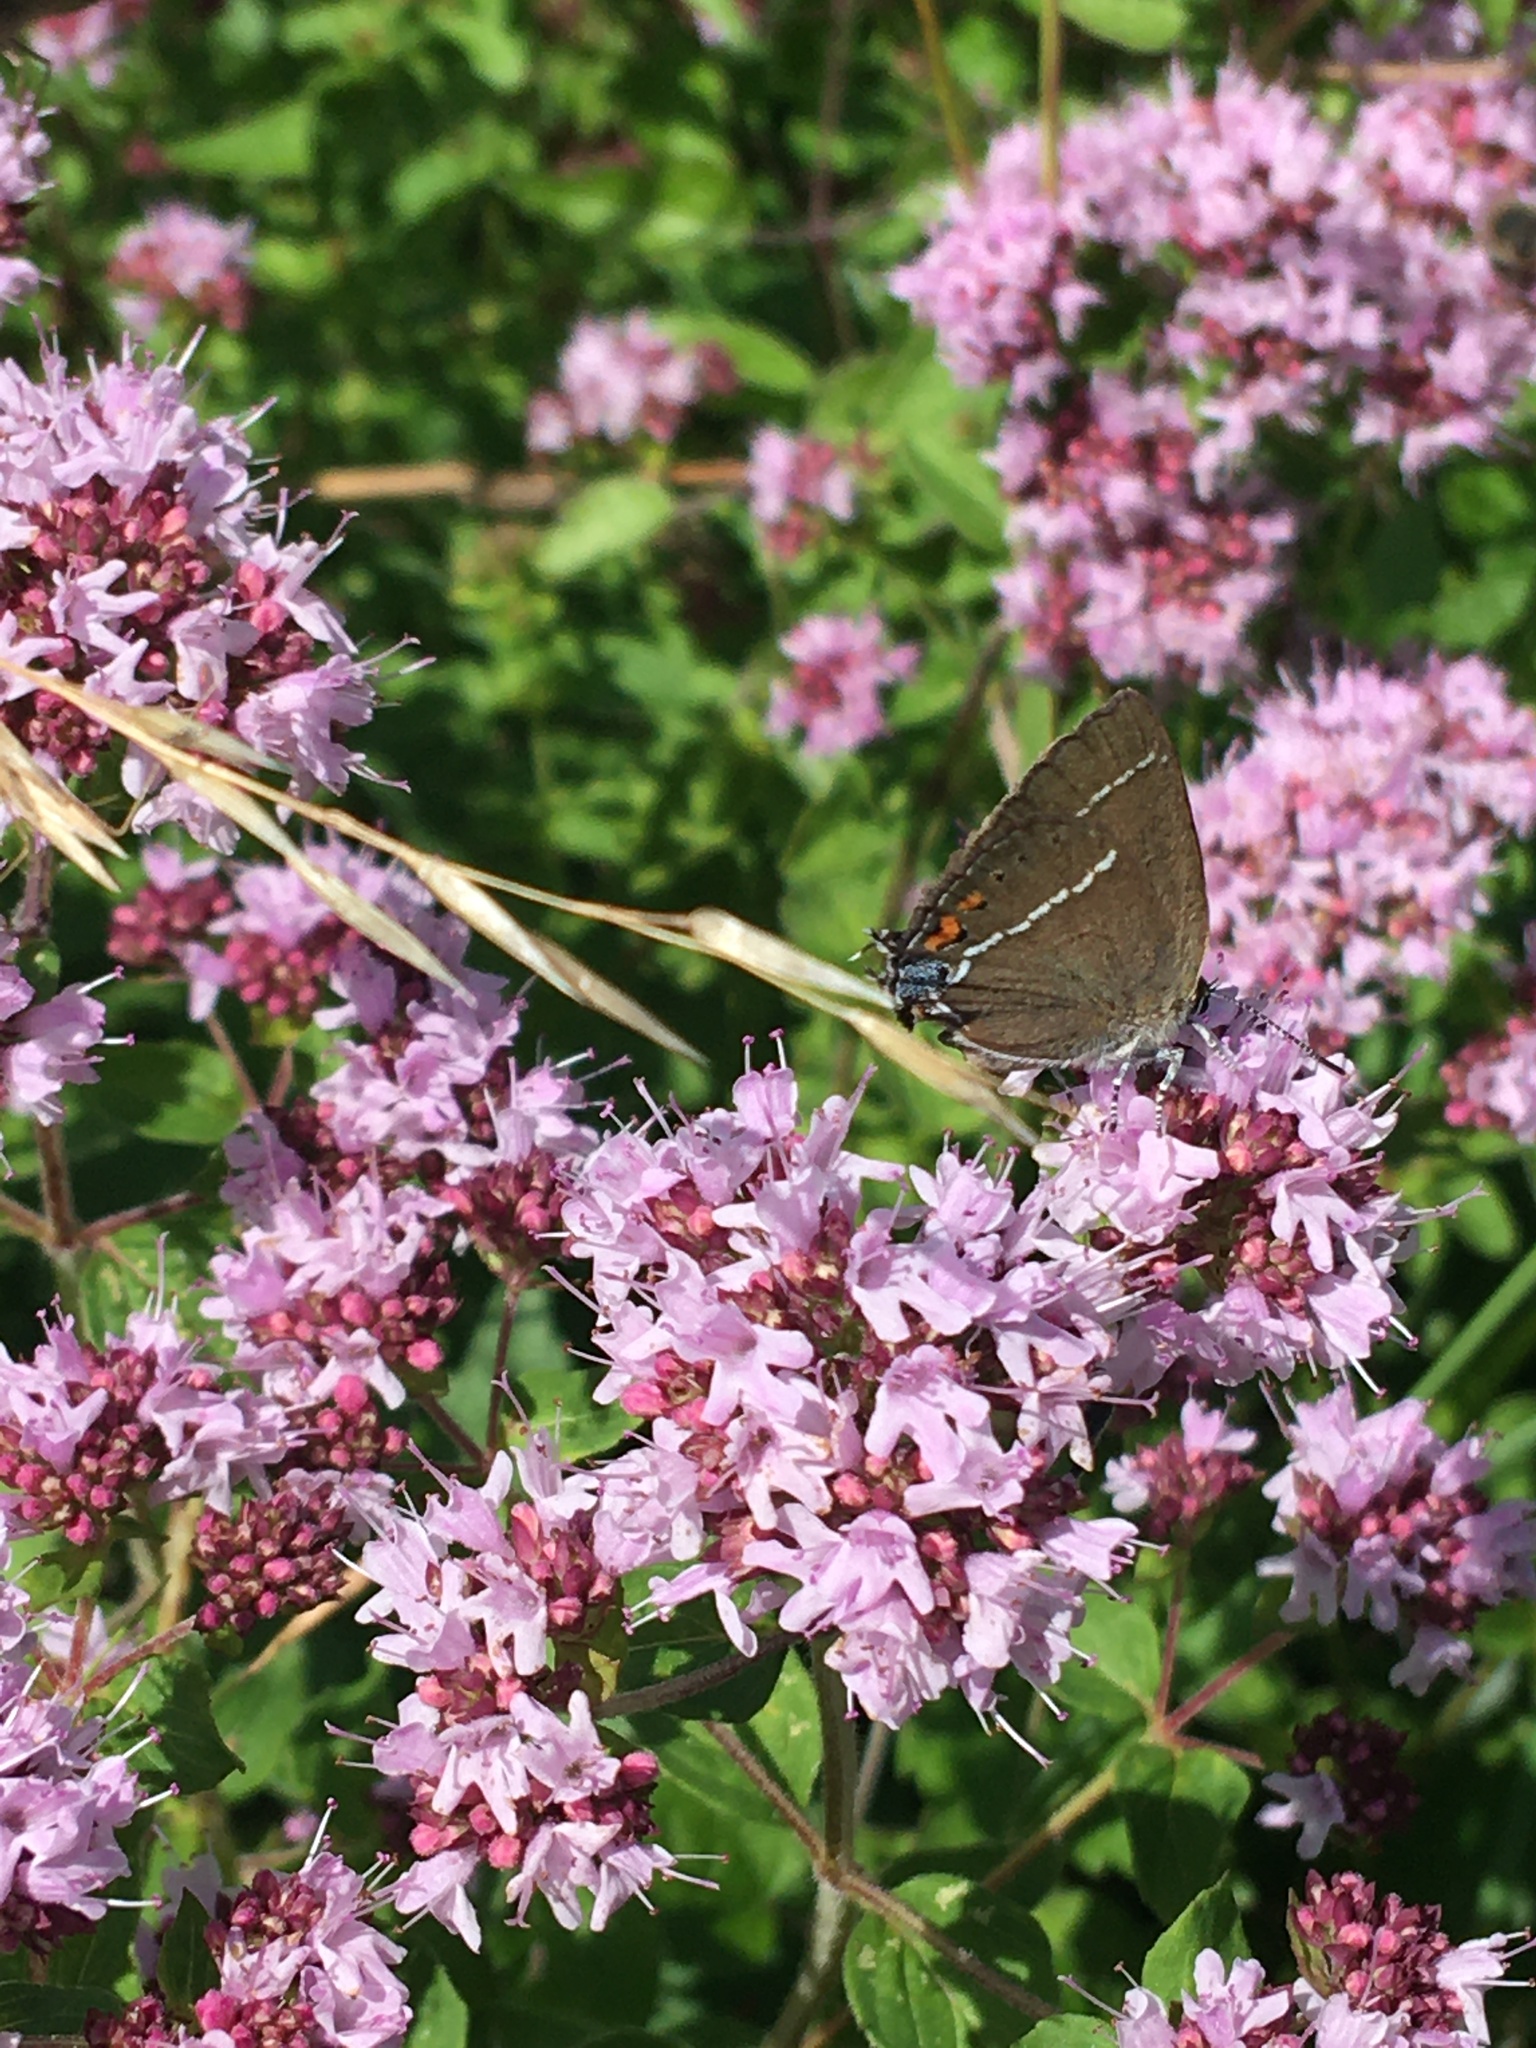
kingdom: Animalia
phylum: Arthropoda
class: Insecta
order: Lepidoptera
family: Lycaenidae
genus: Tuttiola
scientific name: Tuttiola spini
